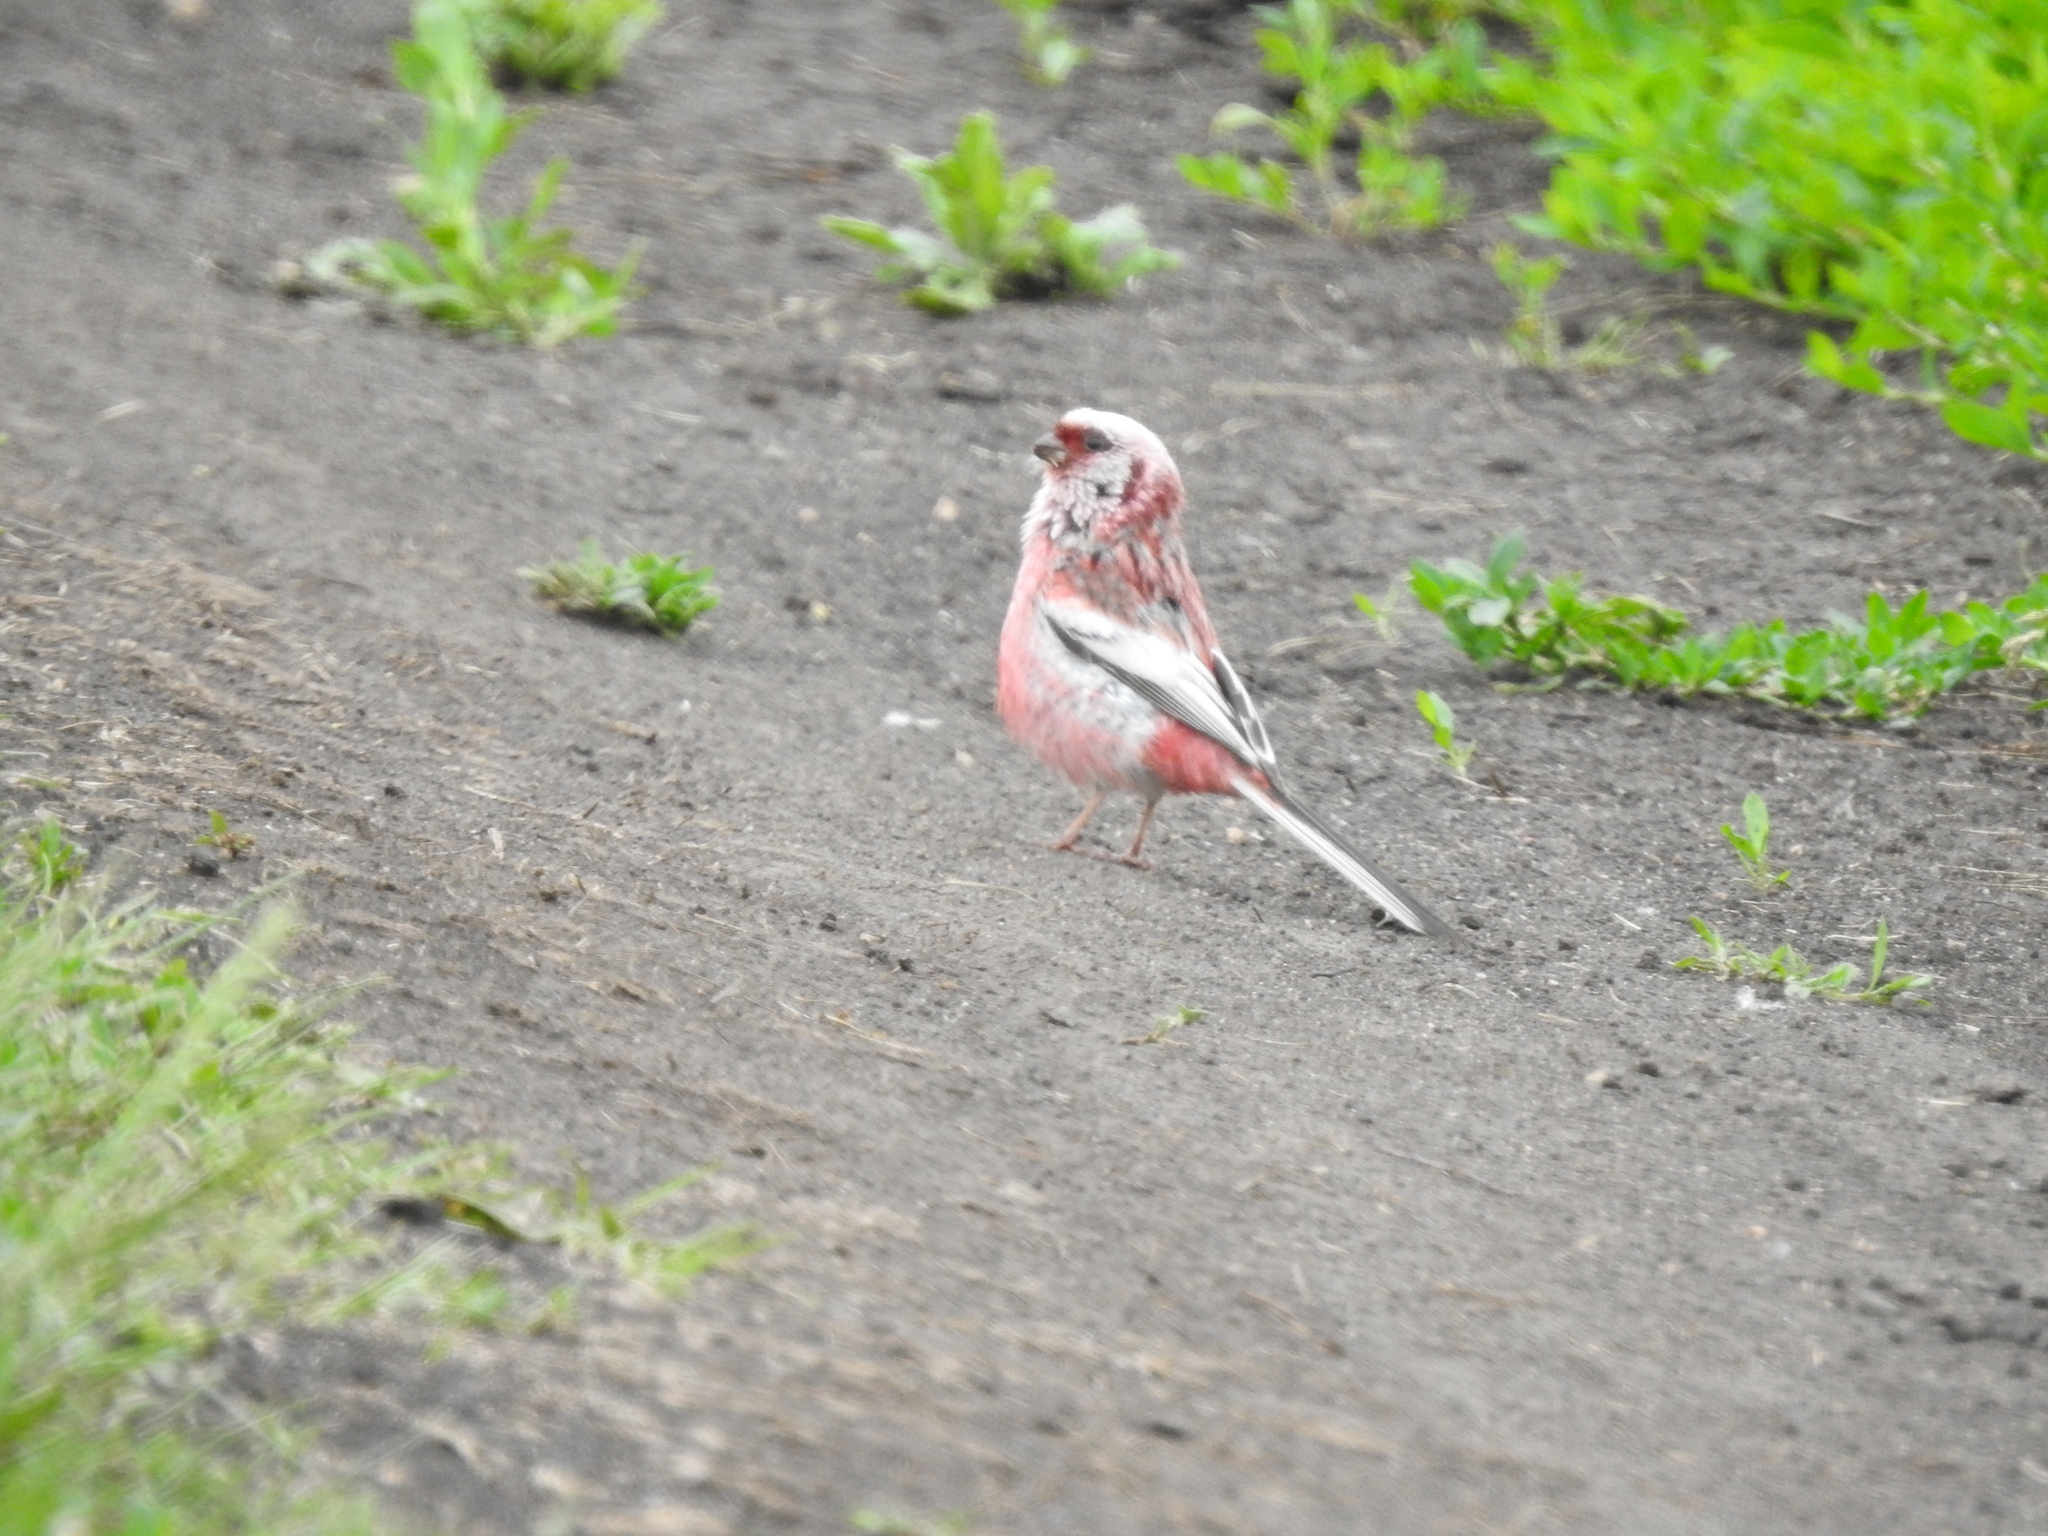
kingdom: Animalia
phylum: Chordata
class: Aves
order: Passeriformes
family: Fringillidae
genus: Carpodacus
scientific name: Carpodacus sibiricus
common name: Long-tailed rosefinch
